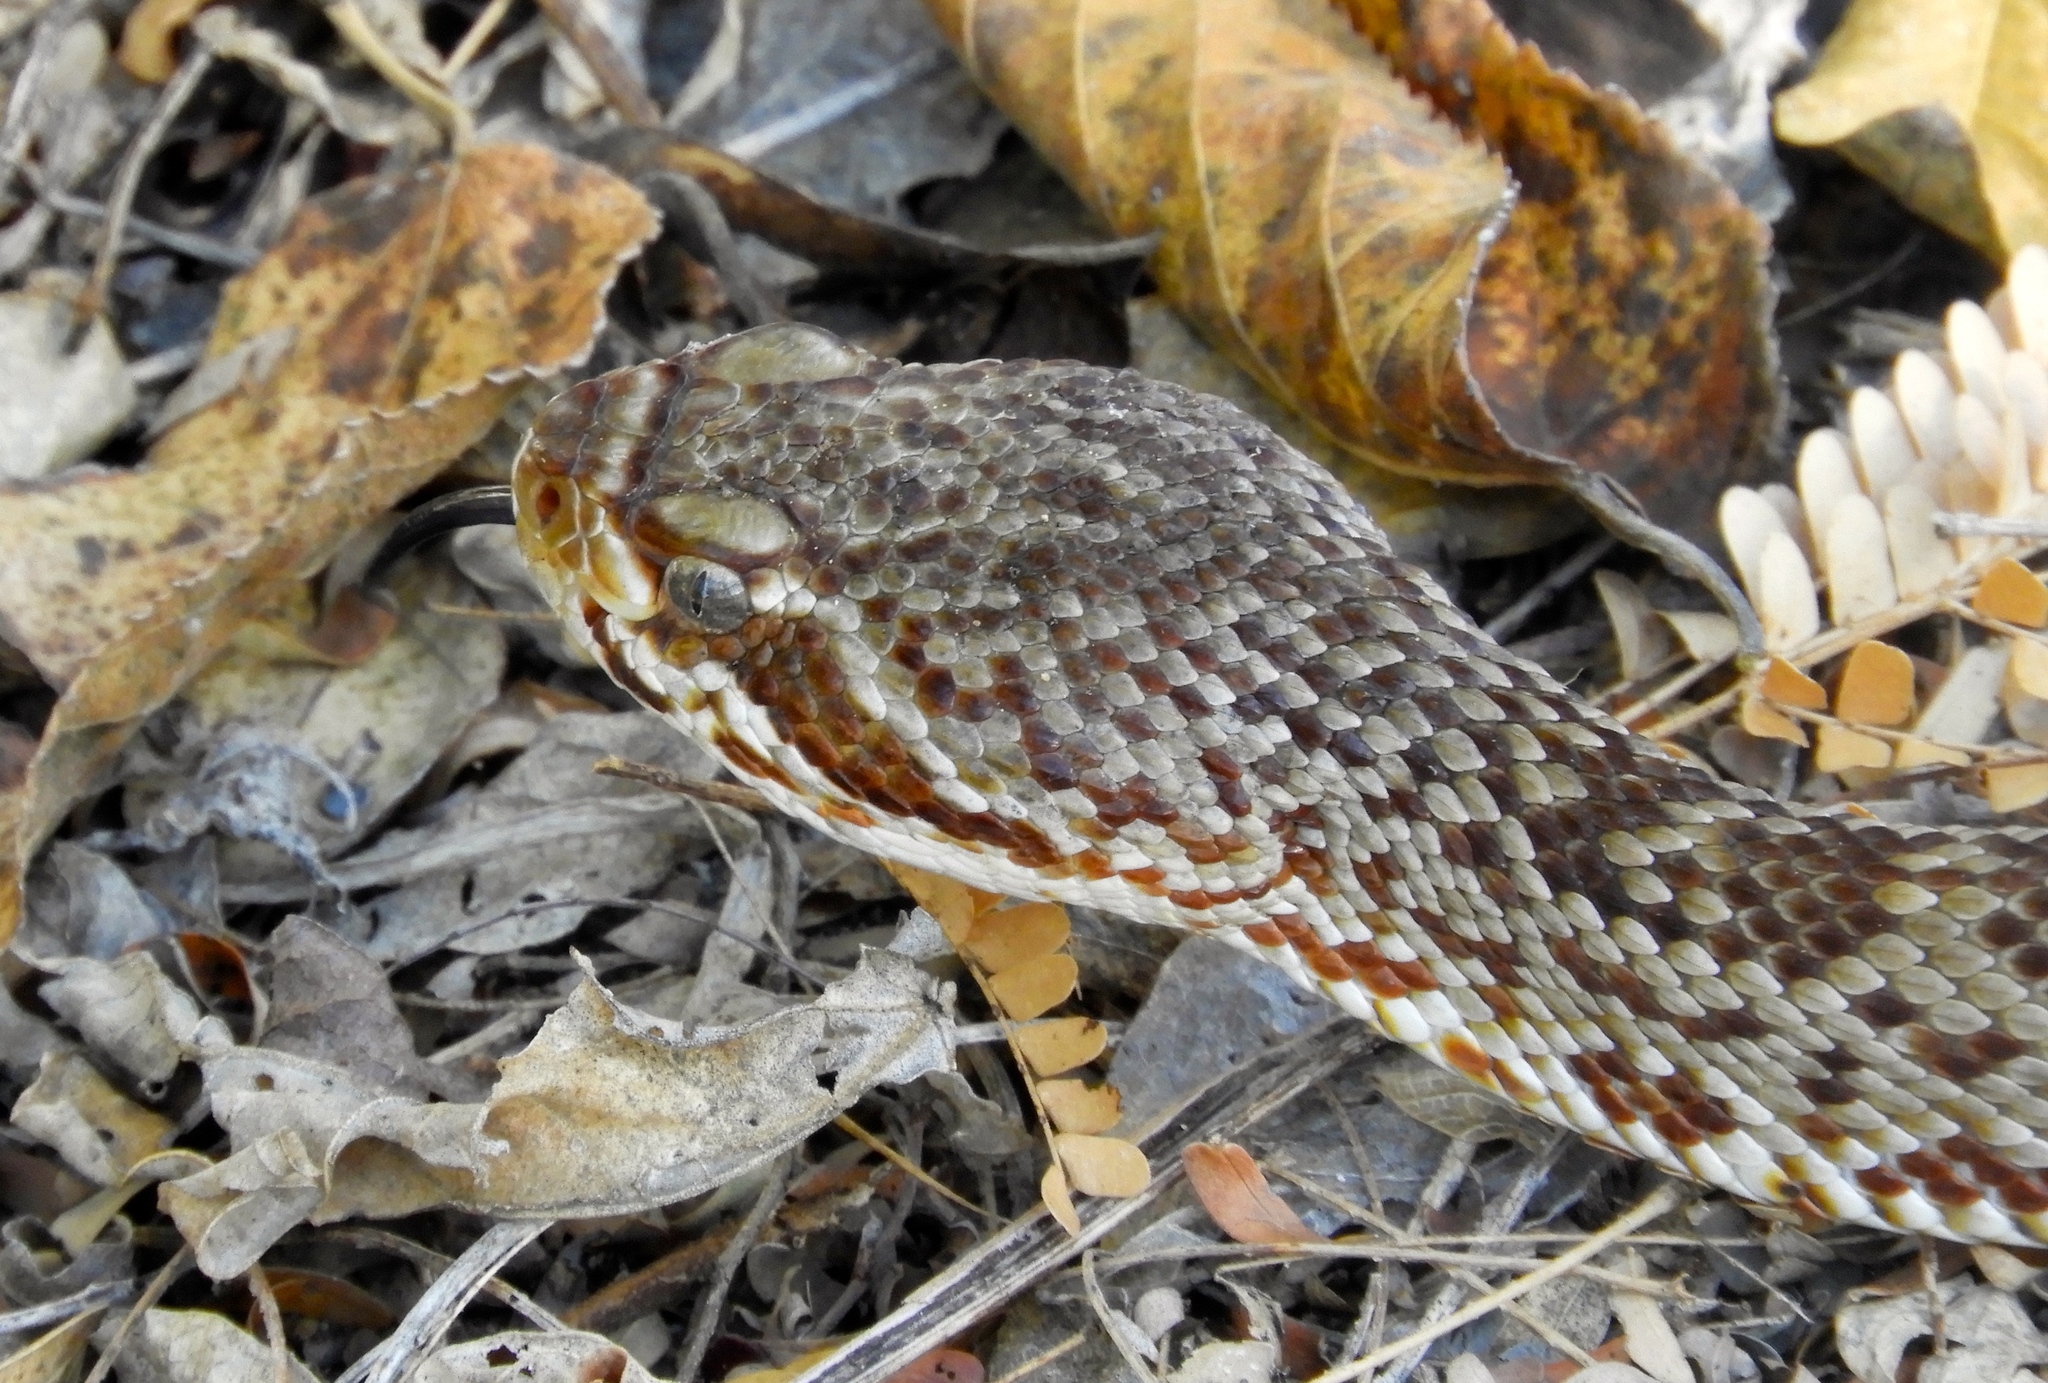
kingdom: Animalia
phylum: Chordata
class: Squamata
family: Viperidae
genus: Crotalus
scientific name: Crotalus basiliscus
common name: Basilisk rattlesnake
